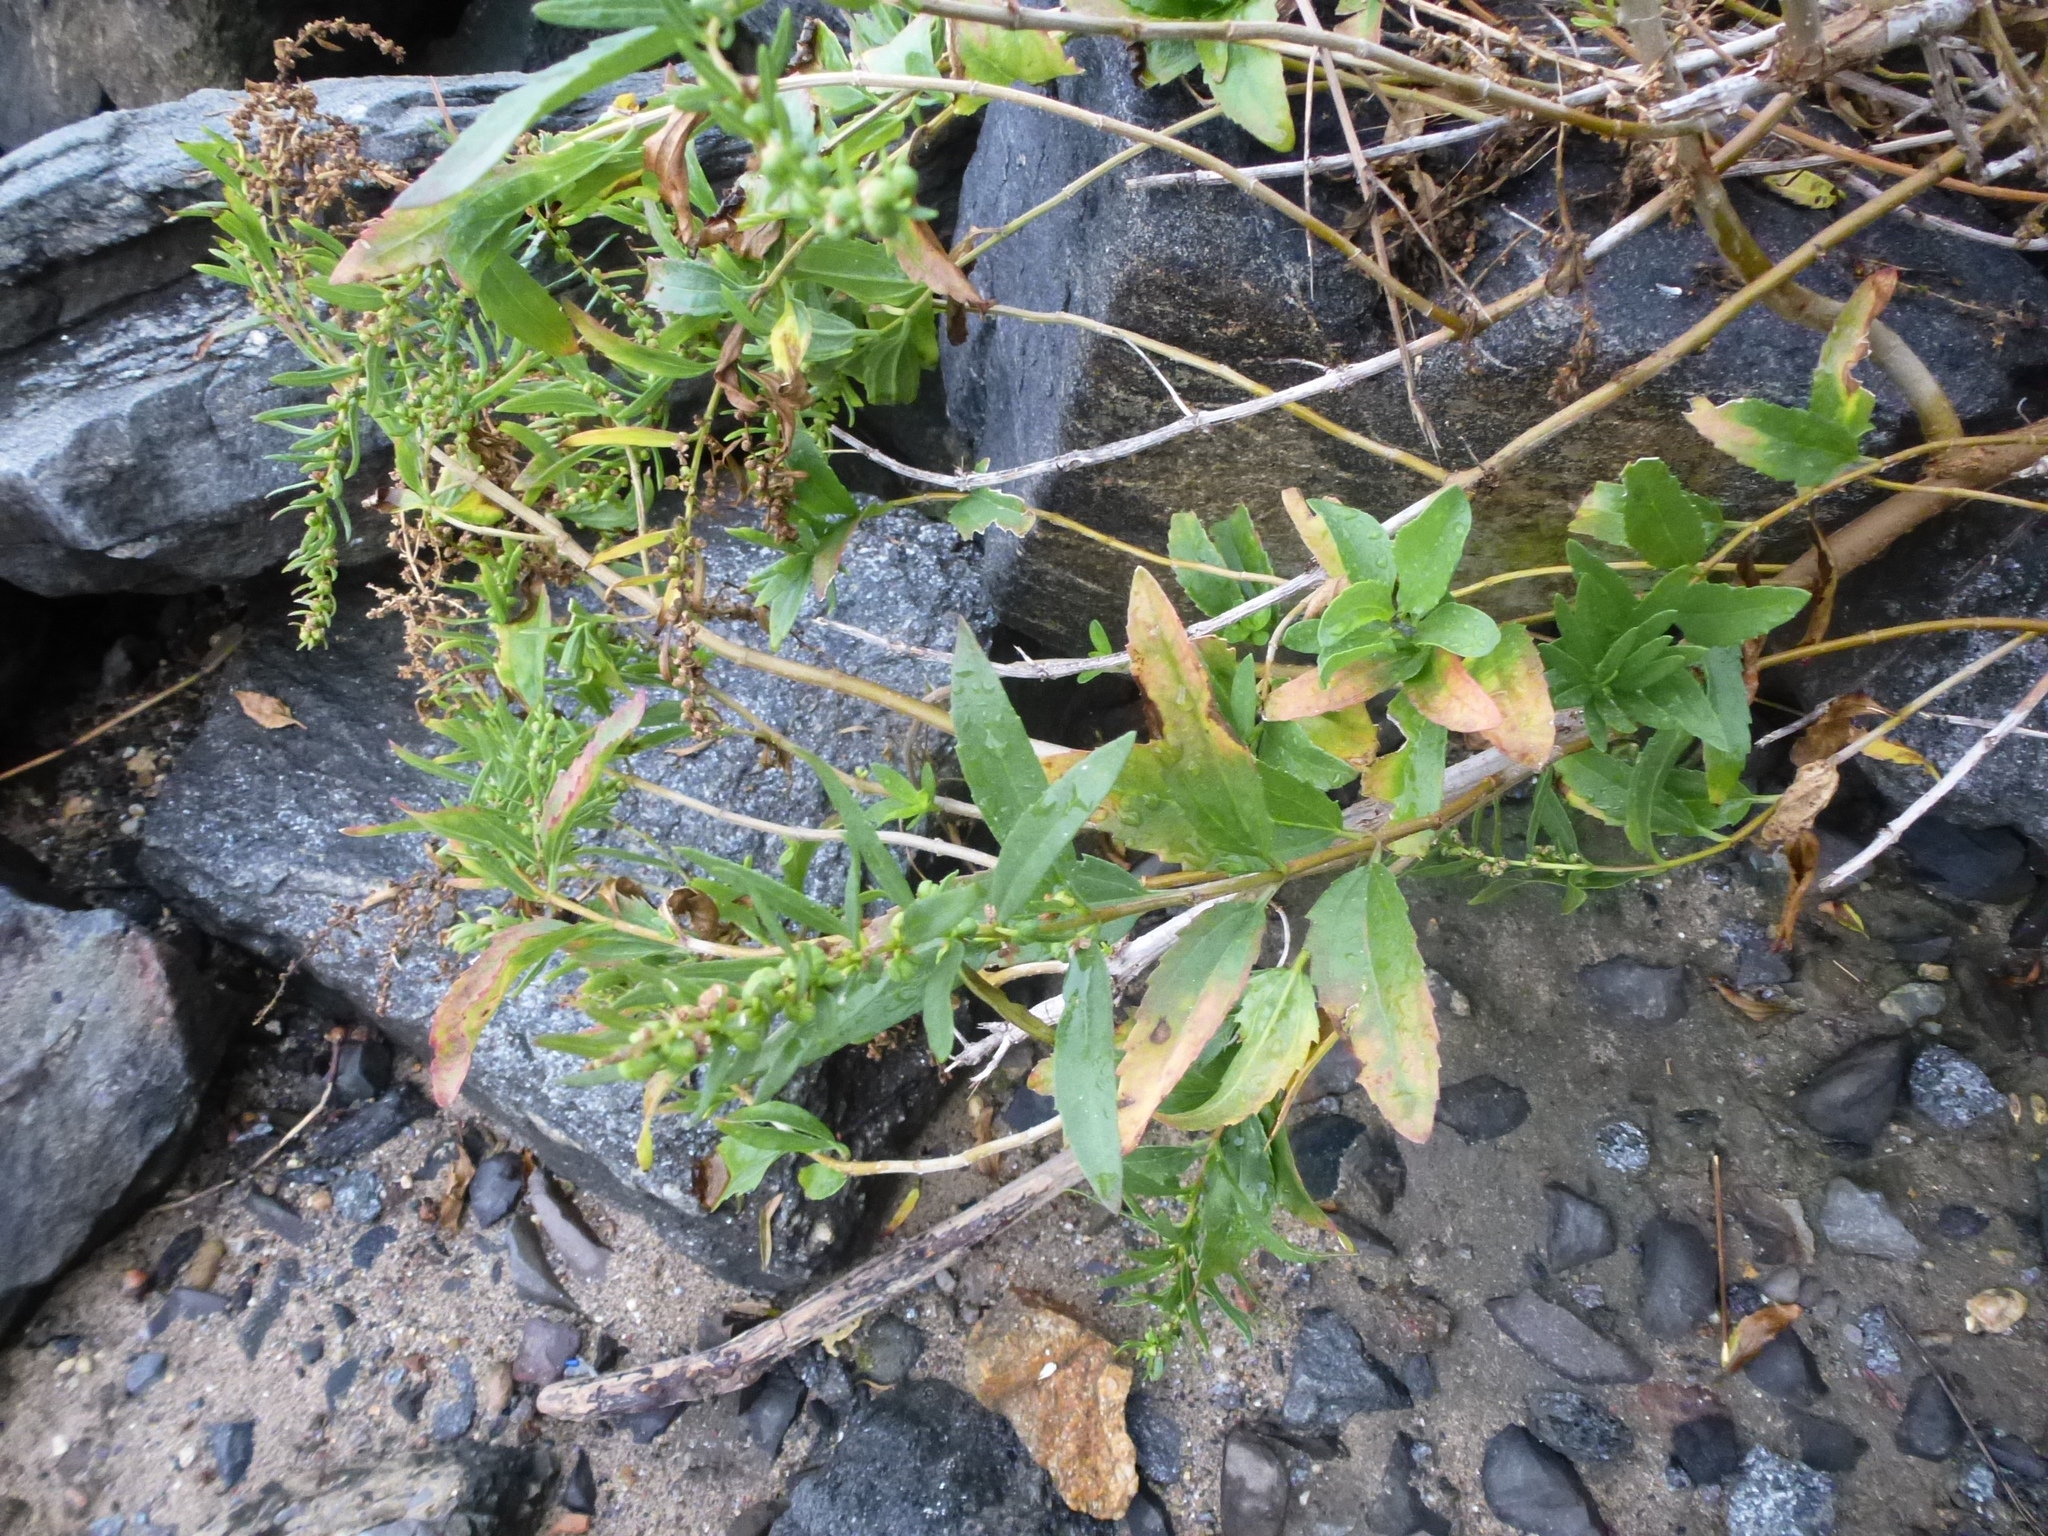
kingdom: Plantae
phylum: Tracheophyta
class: Magnoliopsida
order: Asterales
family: Asteraceae
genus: Iva
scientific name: Iva frutescens
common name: Big-leaved marsh-elder
